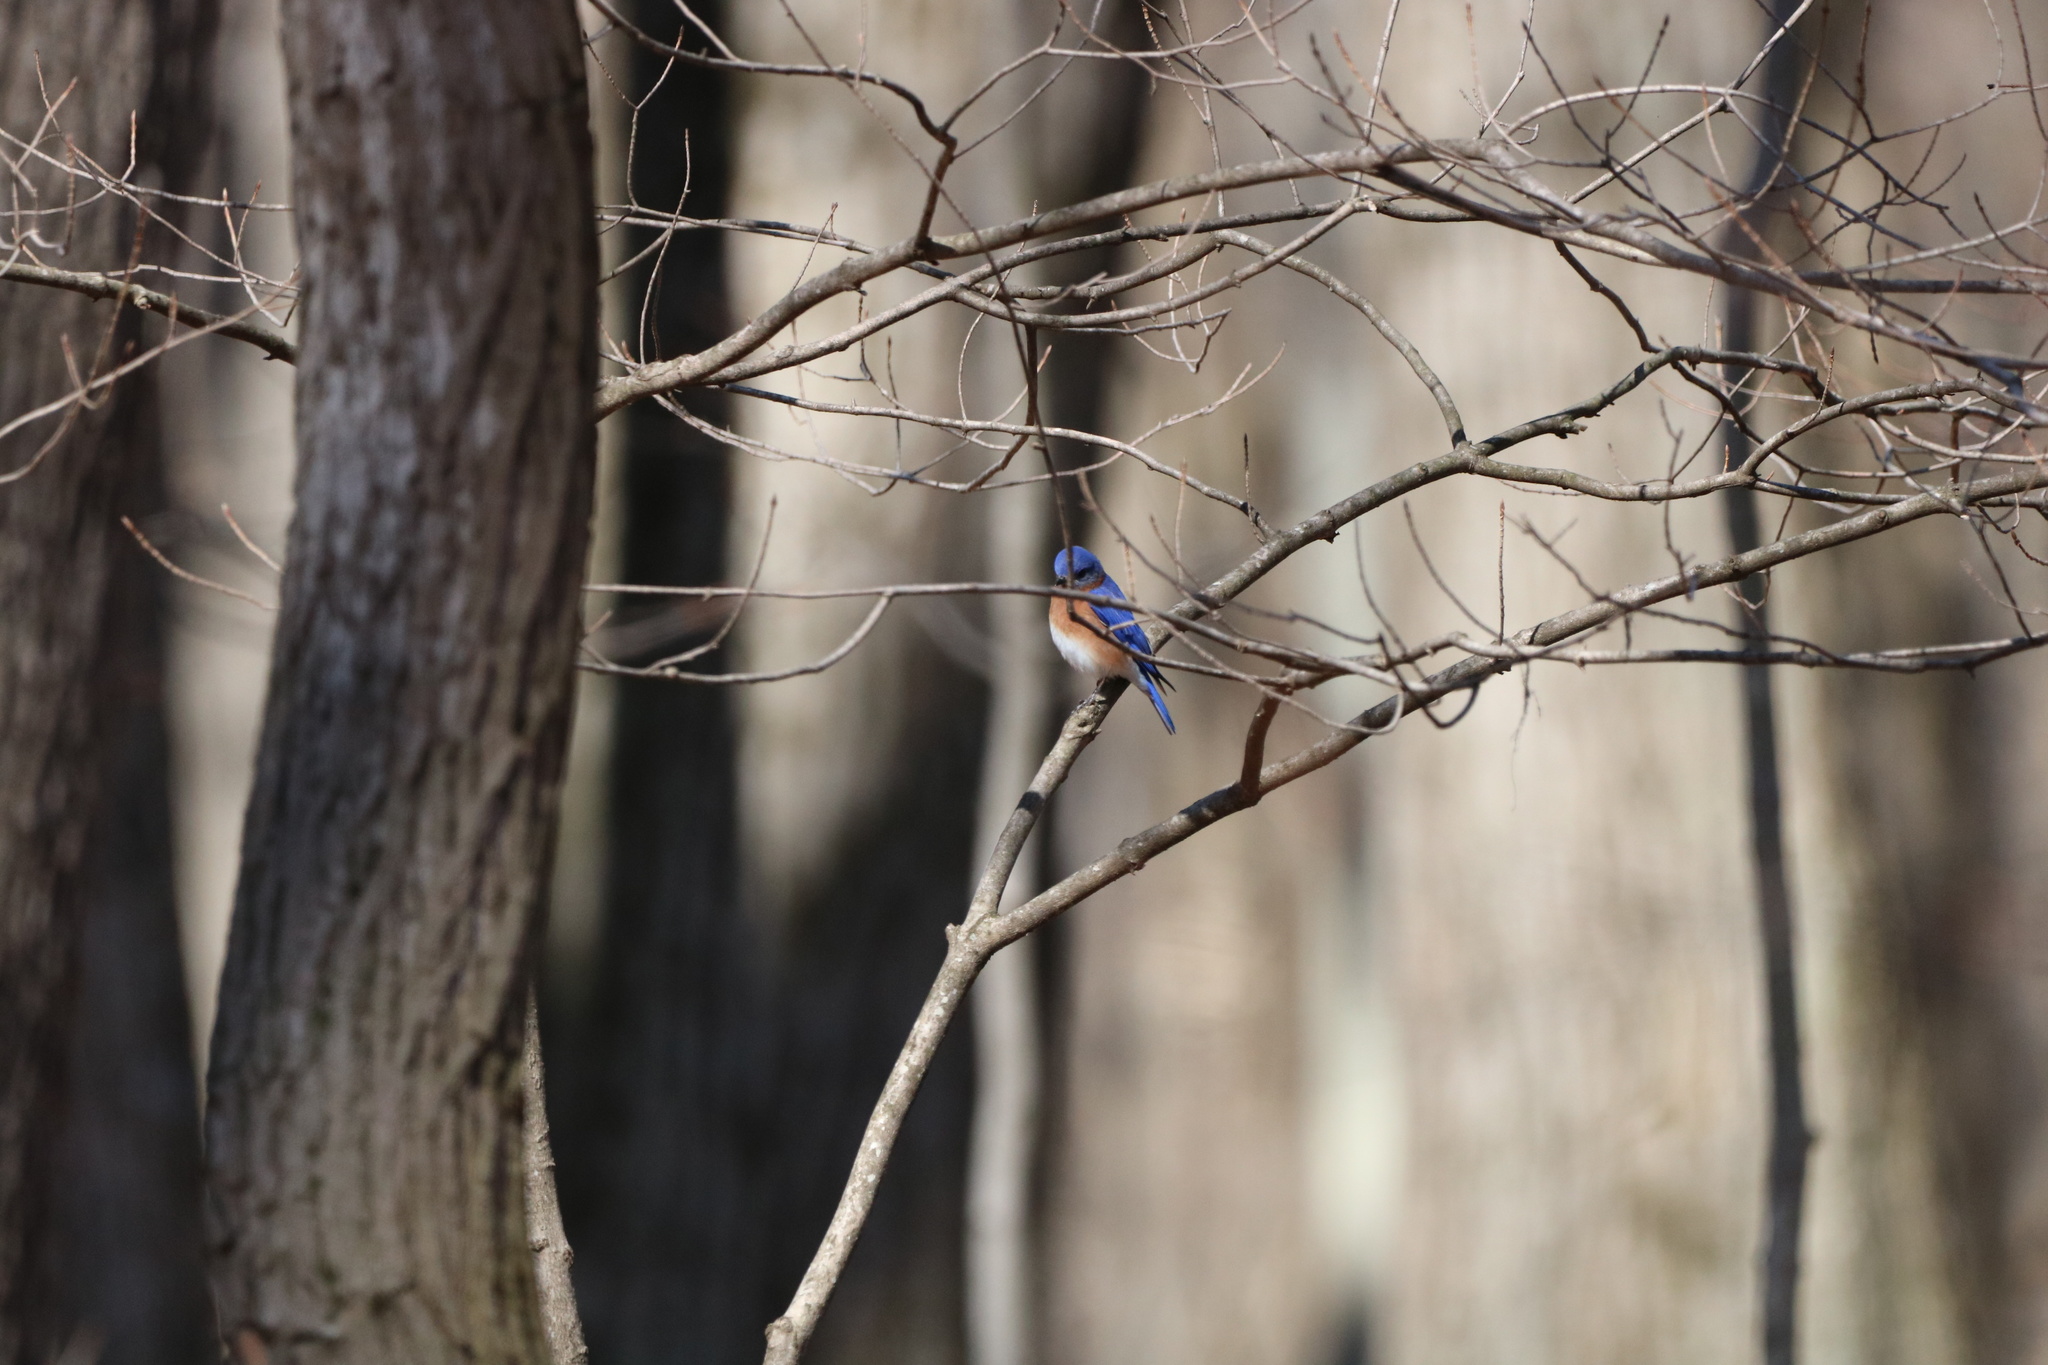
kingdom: Animalia
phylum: Chordata
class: Aves
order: Passeriformes
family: Turdidae
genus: Sialia
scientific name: Sialia sialis
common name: Eastern bluebird
